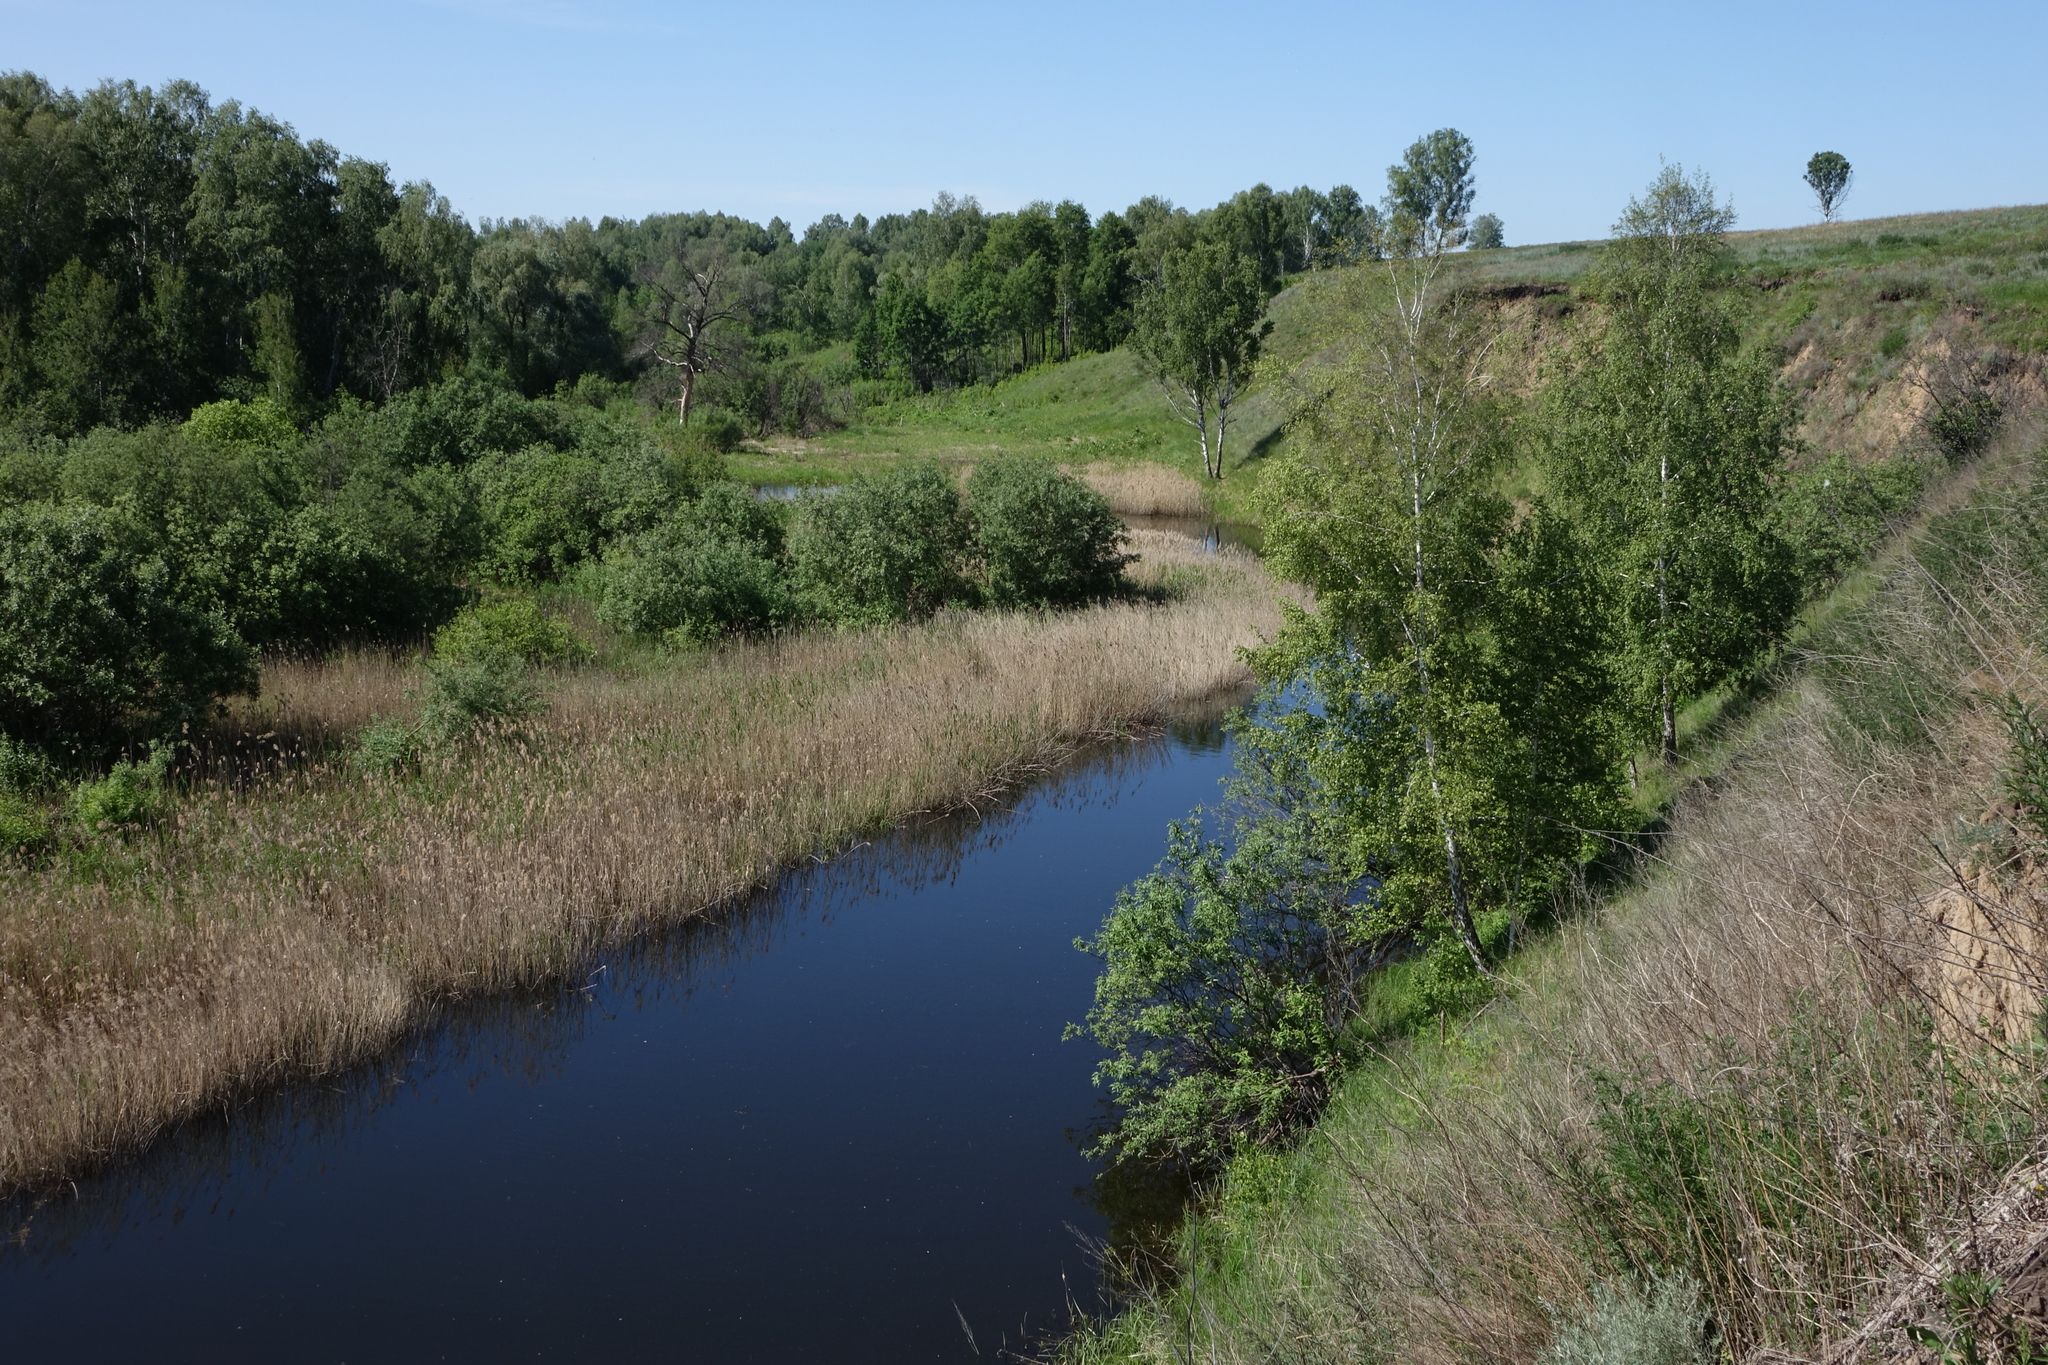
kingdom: Plantae
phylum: Tracheophyta
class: Magnoliopsida
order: Fagales
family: Betulaceae
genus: Betula
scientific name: Betula pendula
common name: Silver birch
